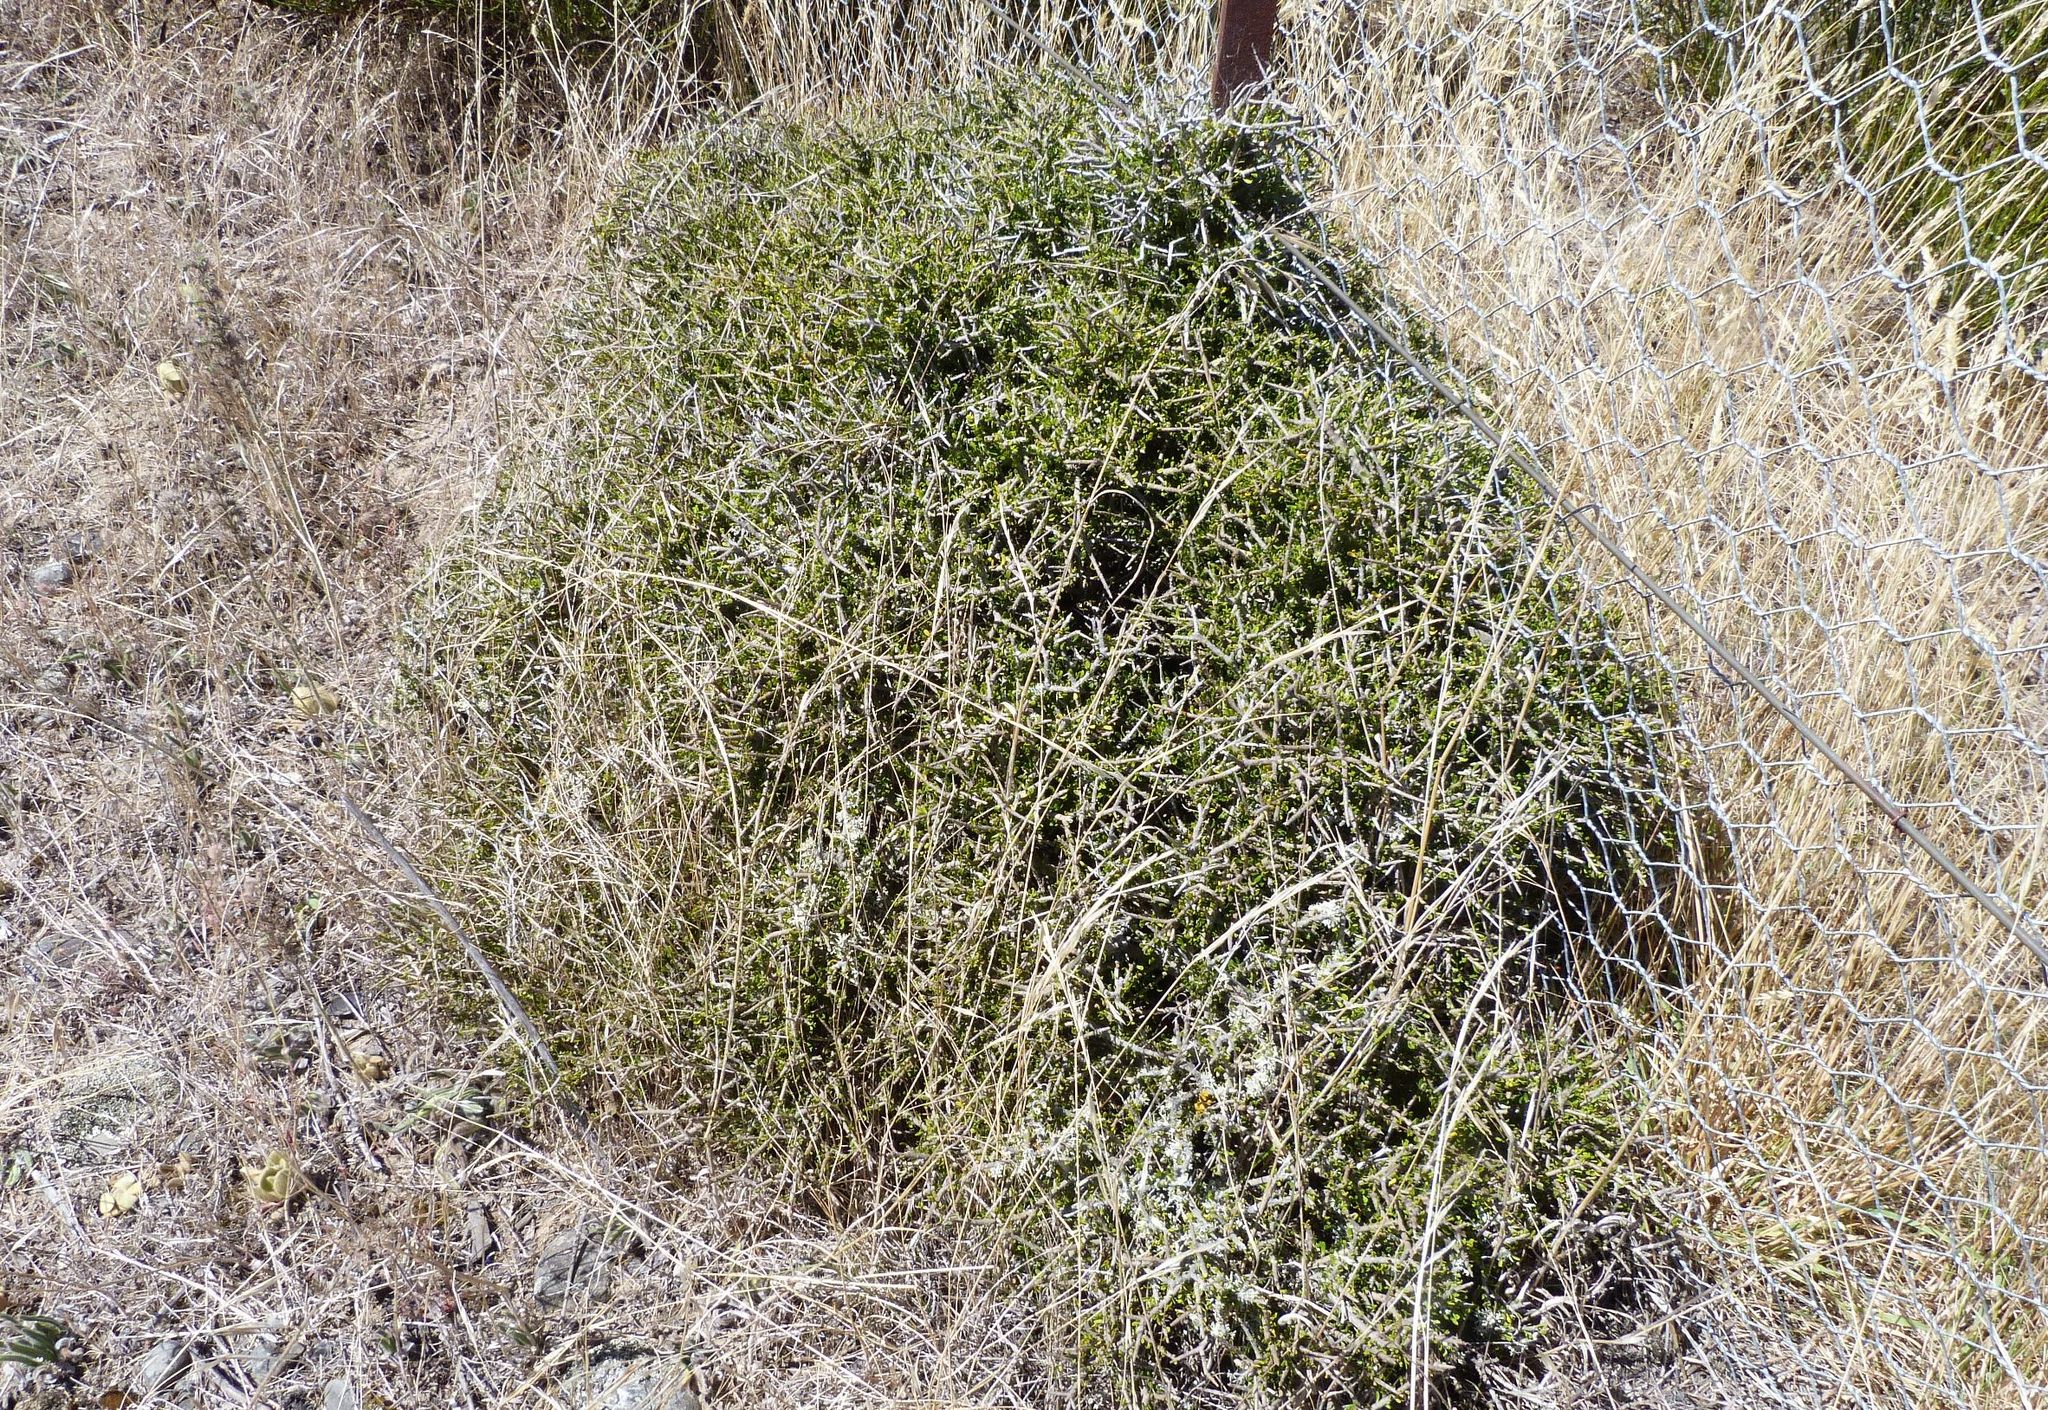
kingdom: Plantae
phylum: Tracheophyta
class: Magnoliopsida
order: Malpighiales
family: Violaceae
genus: Melicytus
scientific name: Melicytus alpinus
